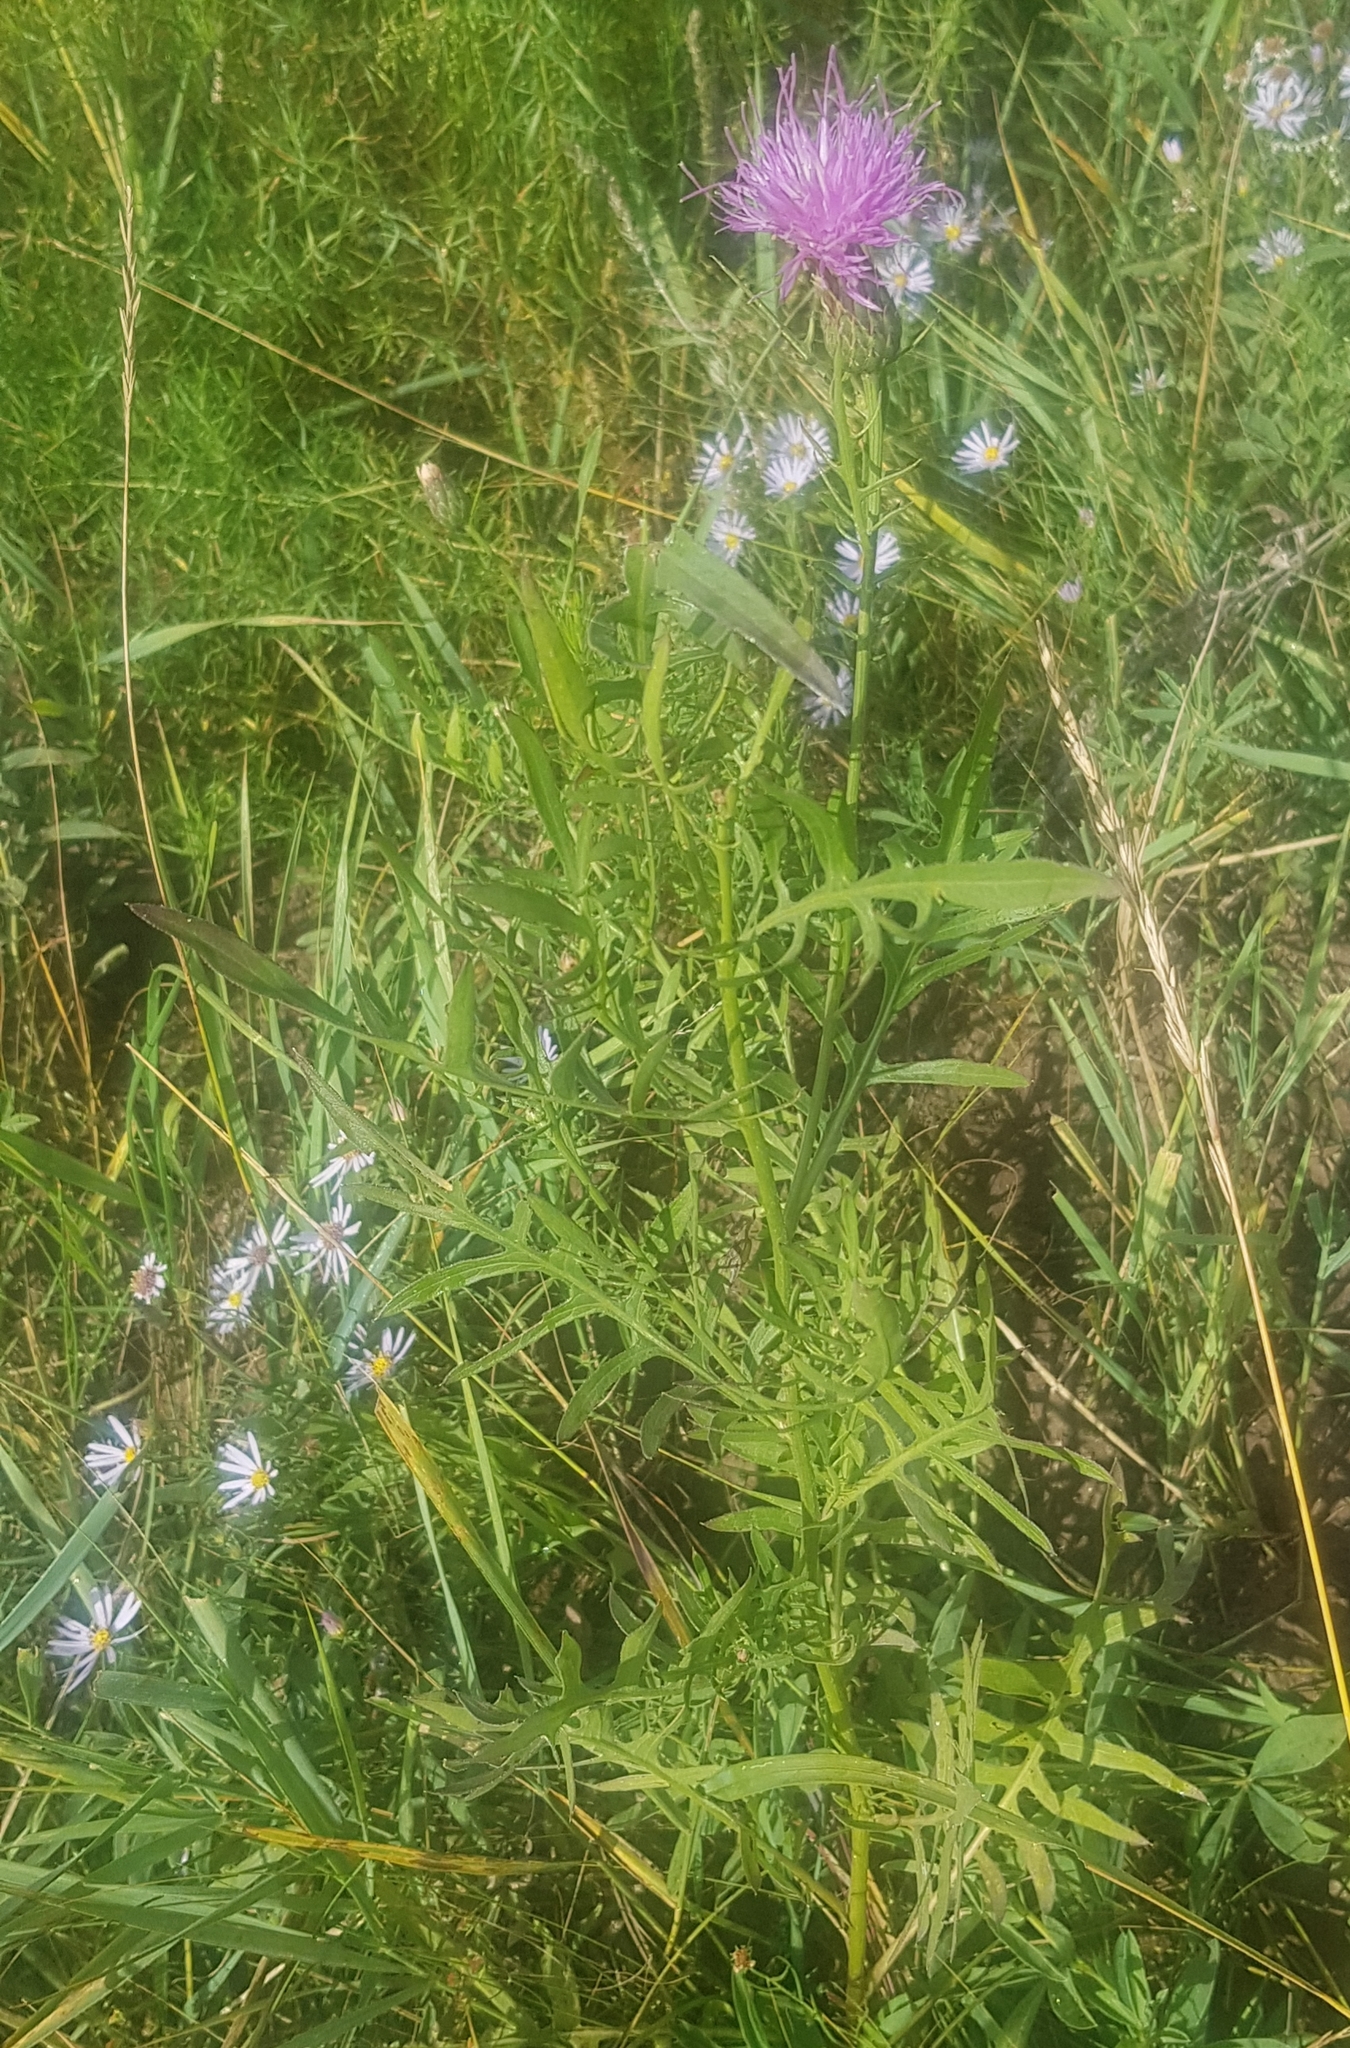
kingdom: Plantae
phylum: Tracheophyta
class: Magnoliopsida
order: Asterales
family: Asteraceae
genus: Klasea
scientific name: Klasea centauroides
